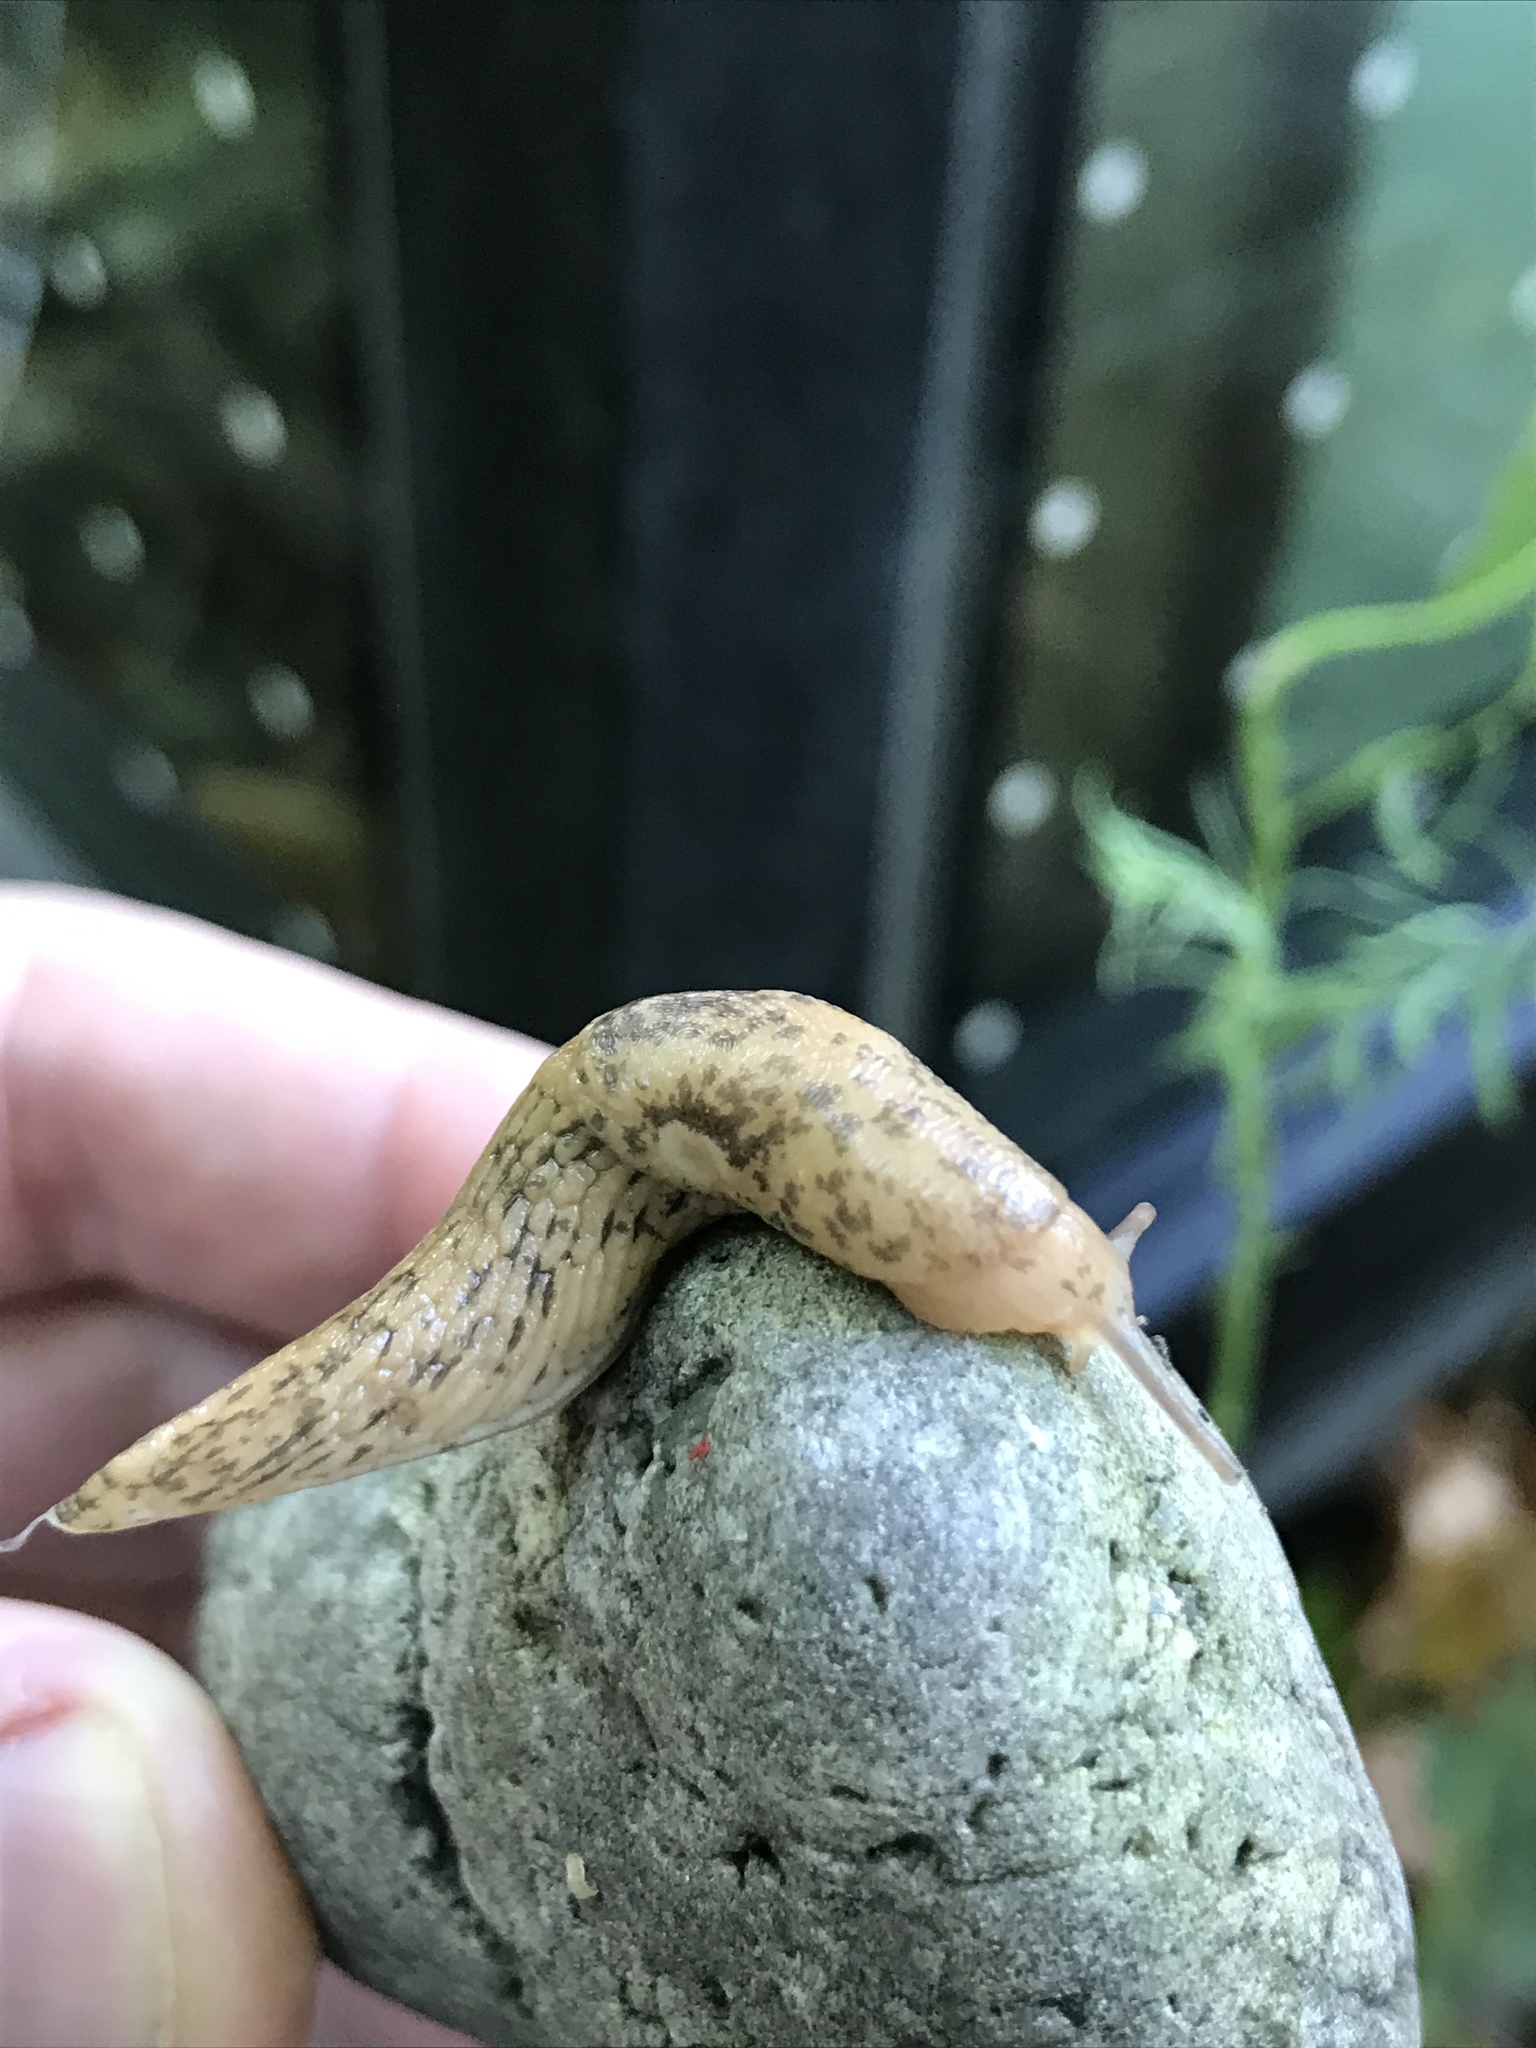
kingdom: Animalia
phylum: Mollusca
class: Gastropoda
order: Stylommatophora
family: Agriolimacidae
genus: Deroceras
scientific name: Deroceras reticulatum
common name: Gray field slug
